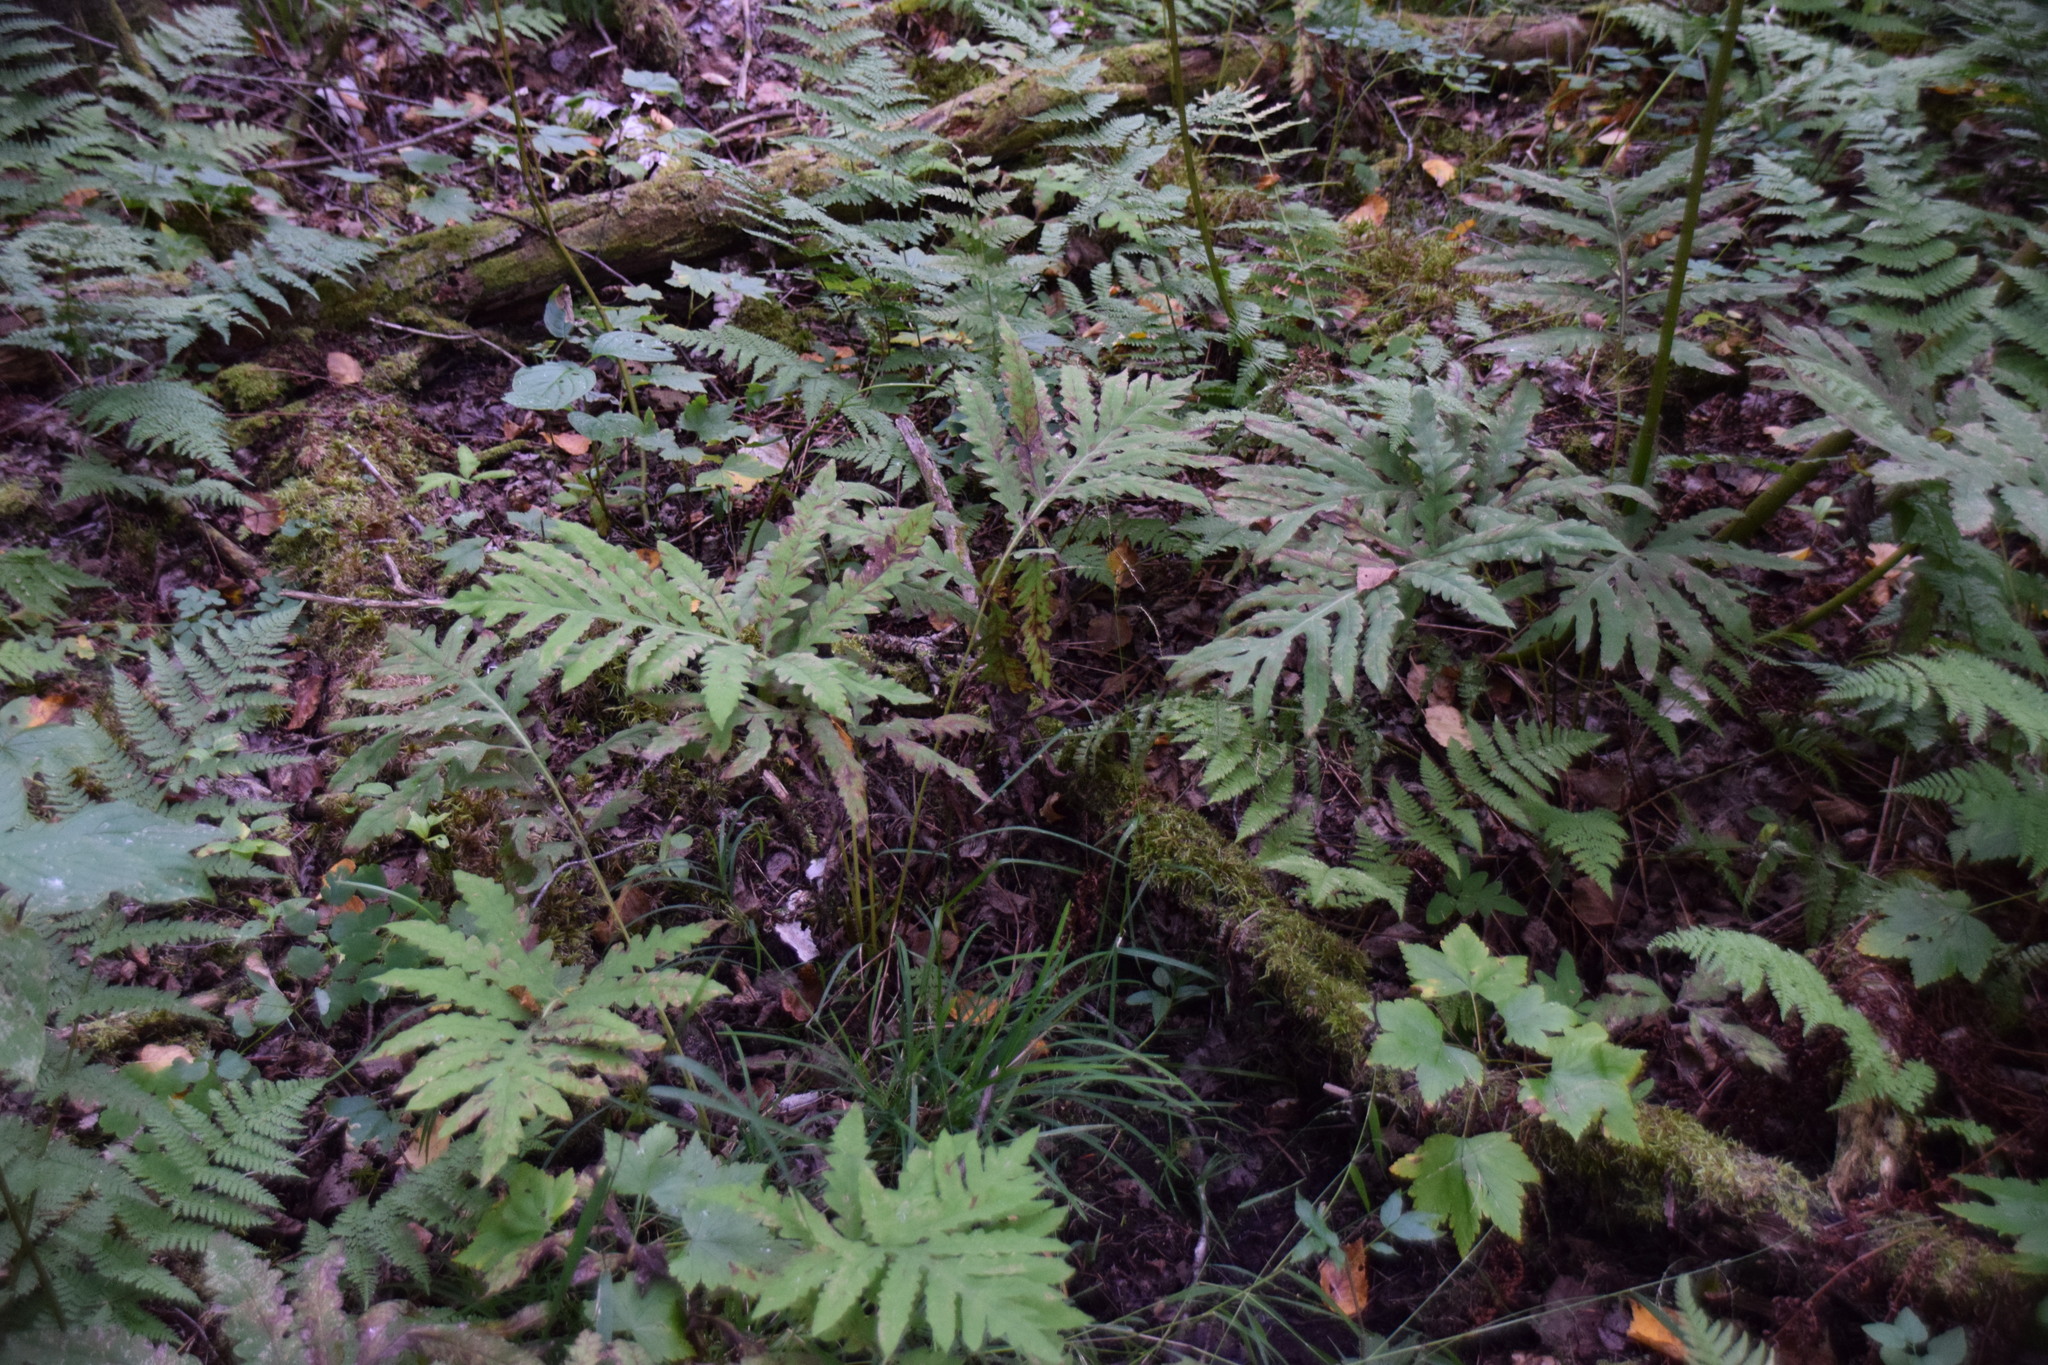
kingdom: Plantae
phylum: Tracheophyta
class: Polypodiopsida
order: Polypodiales
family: Onocleaceae
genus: Onoclea
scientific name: Onoclea sensibilis
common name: Sensitive fern
